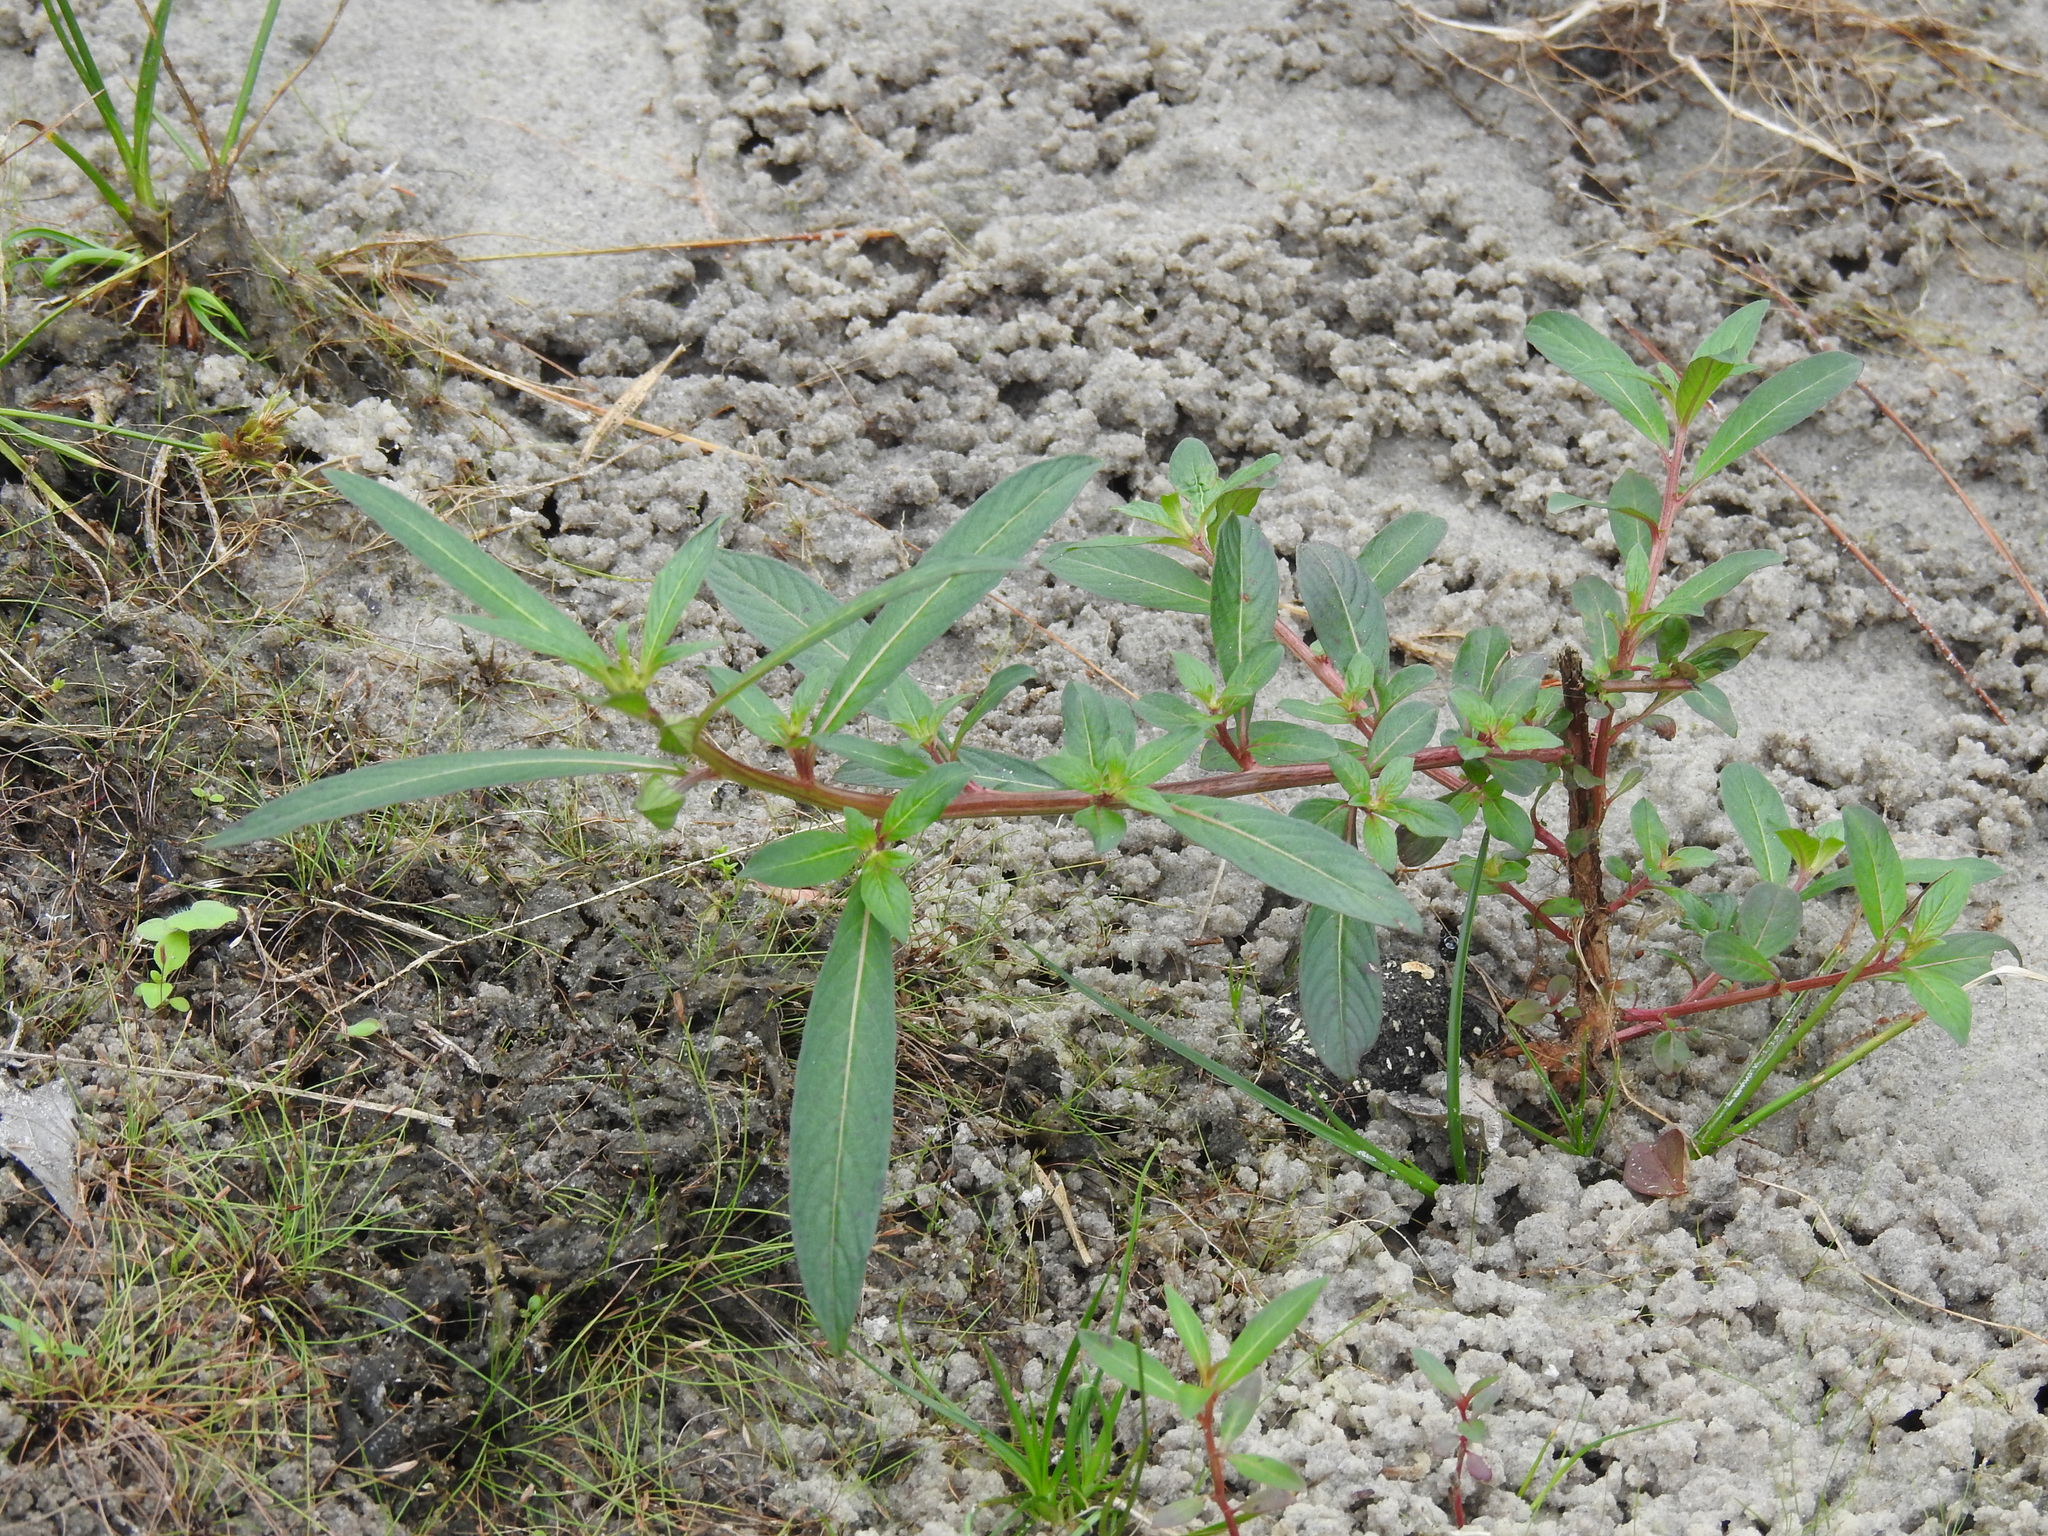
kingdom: Plantae
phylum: Tracheophyta
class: Magnoliopsida
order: Myrtales
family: Onagraceae
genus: Ludwigia
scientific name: Ludwigia octovalvis
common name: Water-primrose
